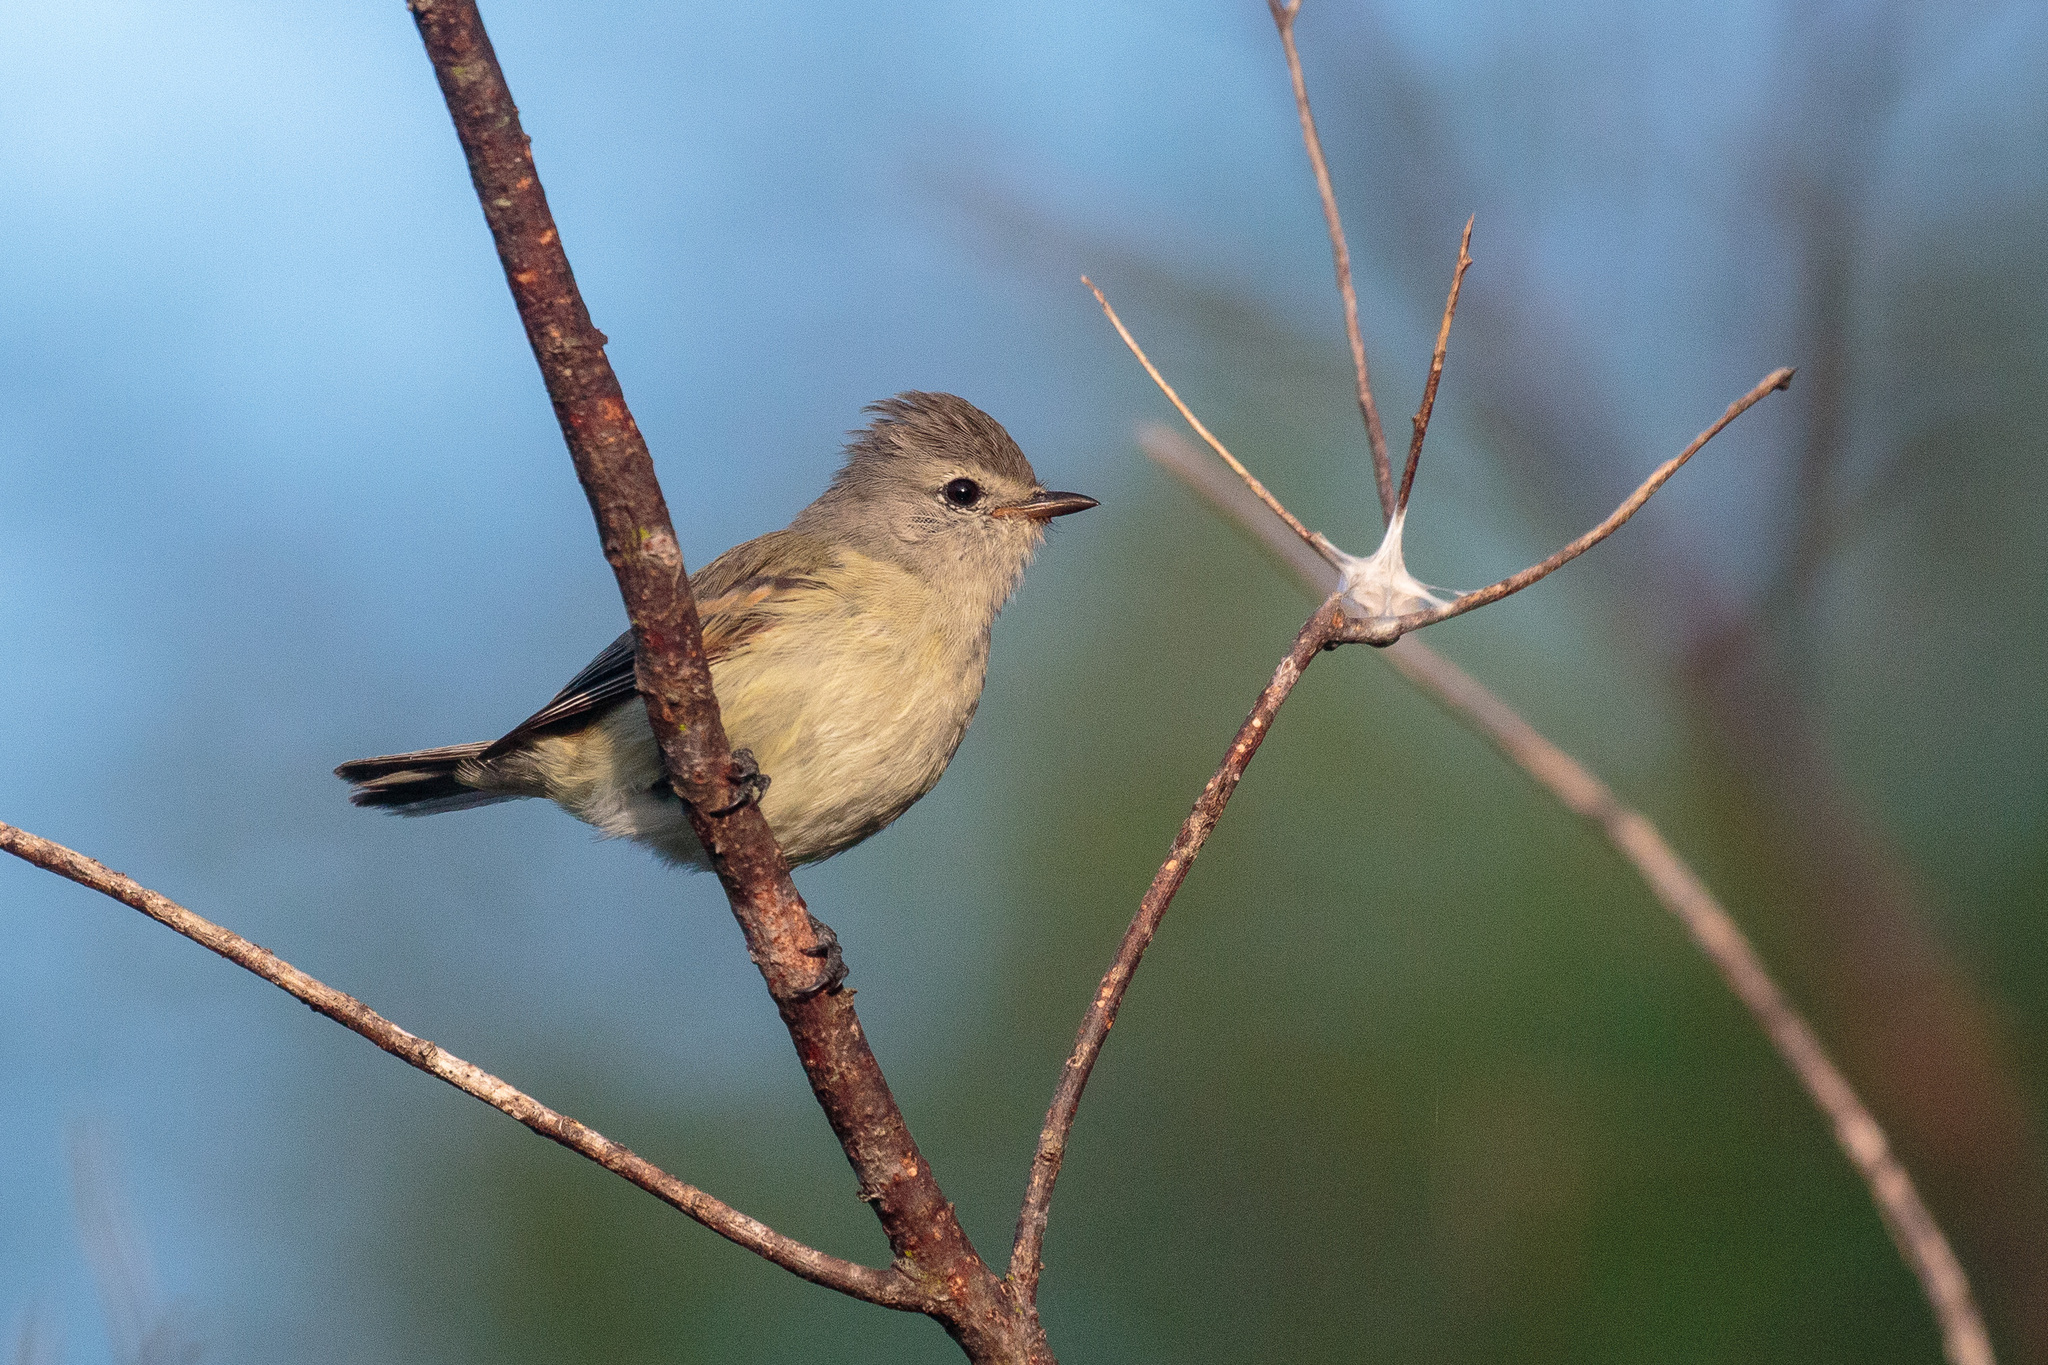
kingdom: Animalia
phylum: Chordata
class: Aves
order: Passeriformes
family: Tyrannidae
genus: Camptostoma
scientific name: Camptostoma obsoletum
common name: Southern beardless-tyrannulet
